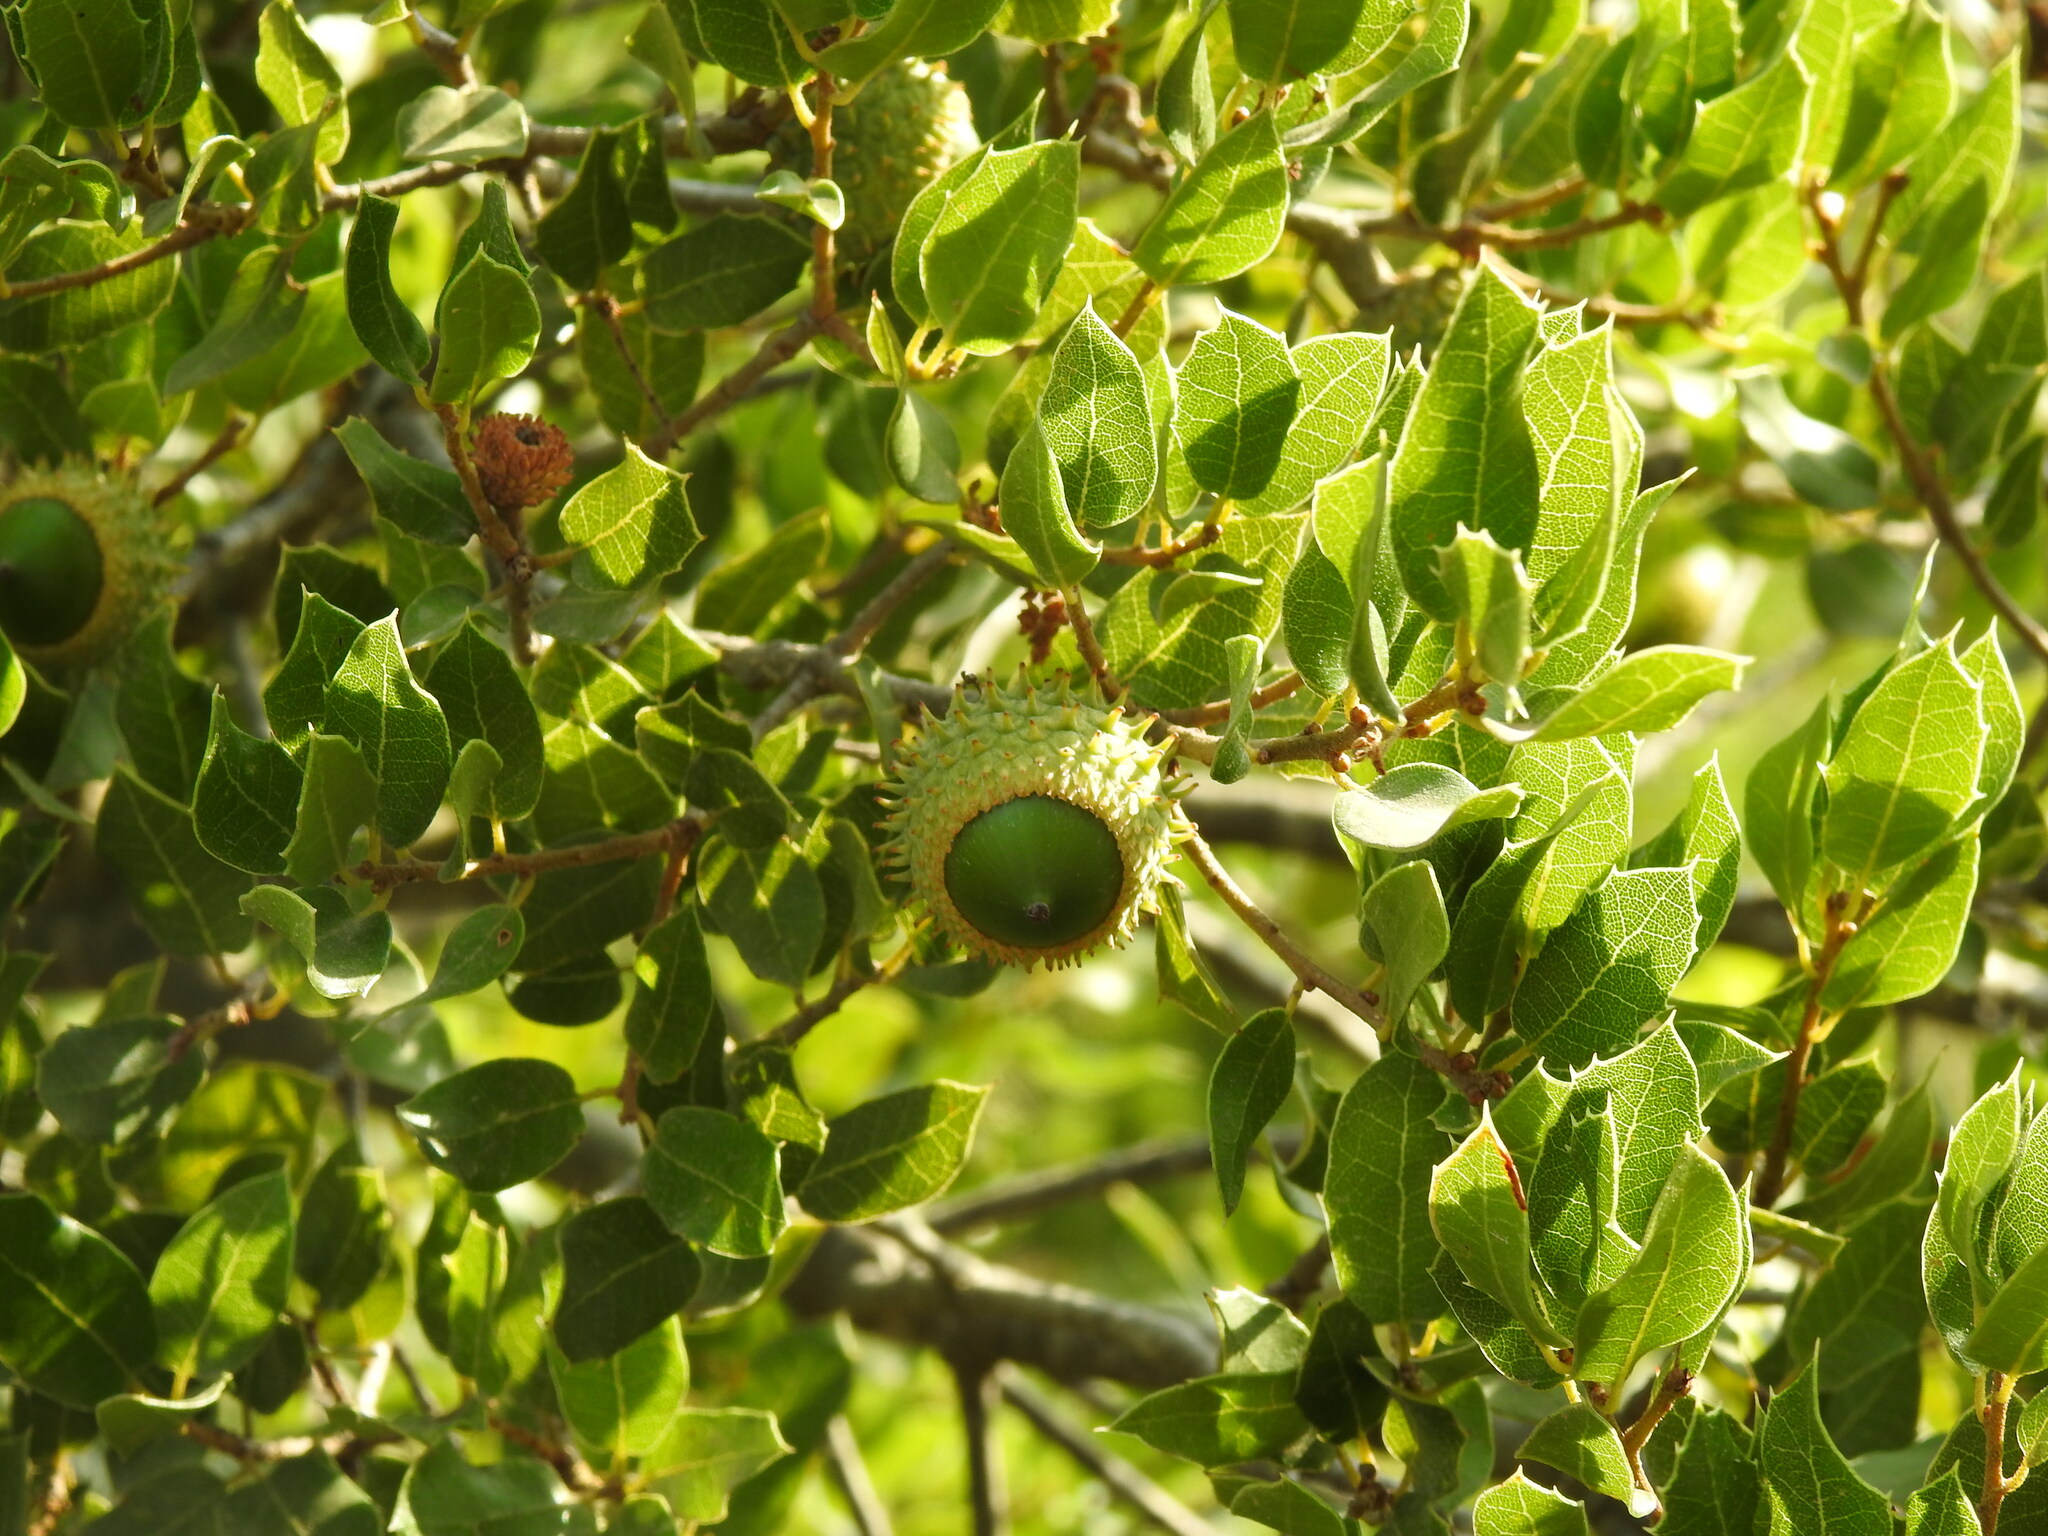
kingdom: Plantae
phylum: Tracheophyta
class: Magnoliopsida
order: Fagales
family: Fagaceae
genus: Quercus
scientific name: Quercus coccifera
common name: Kermes oak
